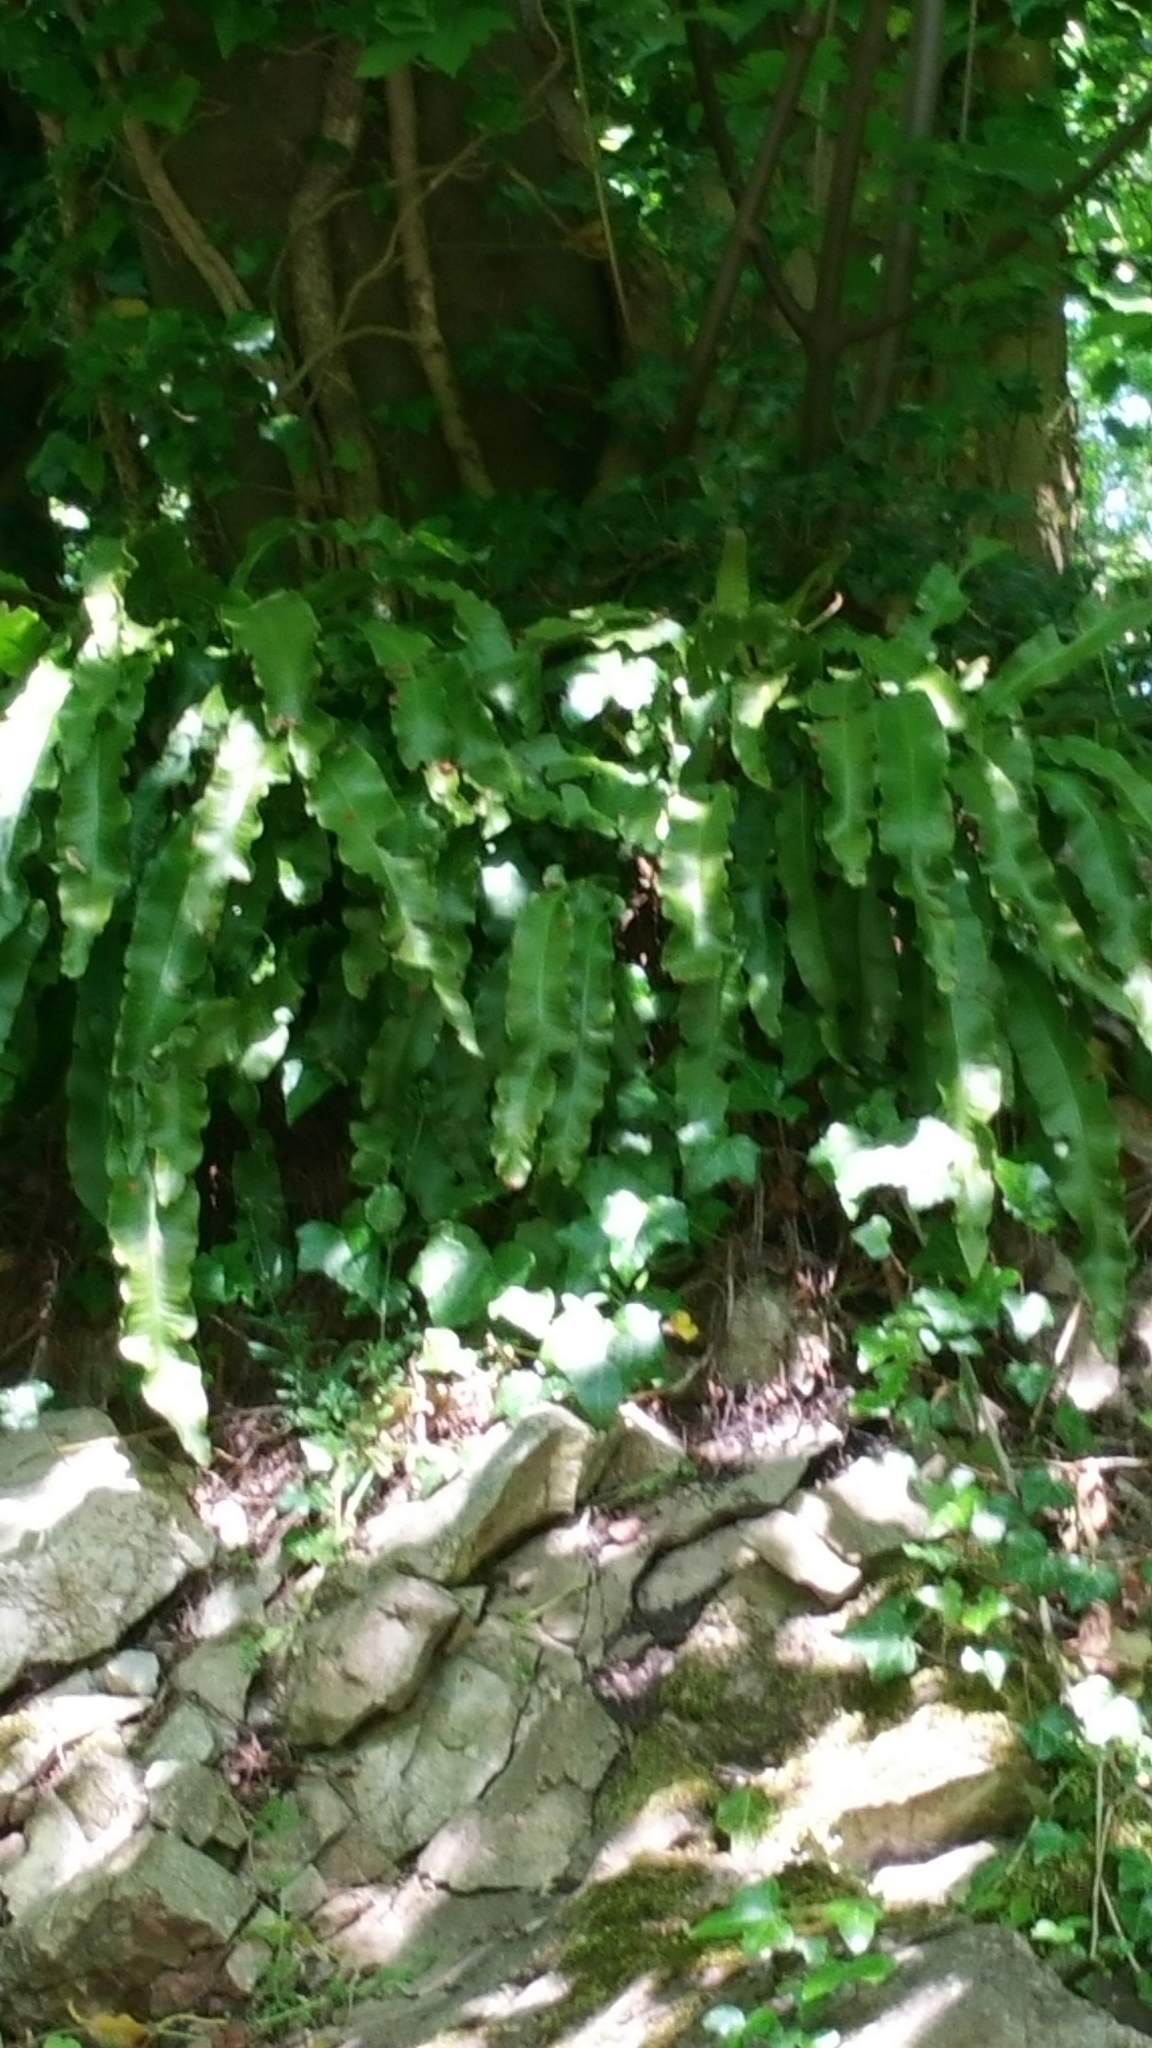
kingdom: Plantae
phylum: Tracheophyta
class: Polypodiopsida
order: Polypodiales
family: Aspleniaceae
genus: Asplenium
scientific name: Asplenium scolopendrium
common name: Hart's-tongue fern
